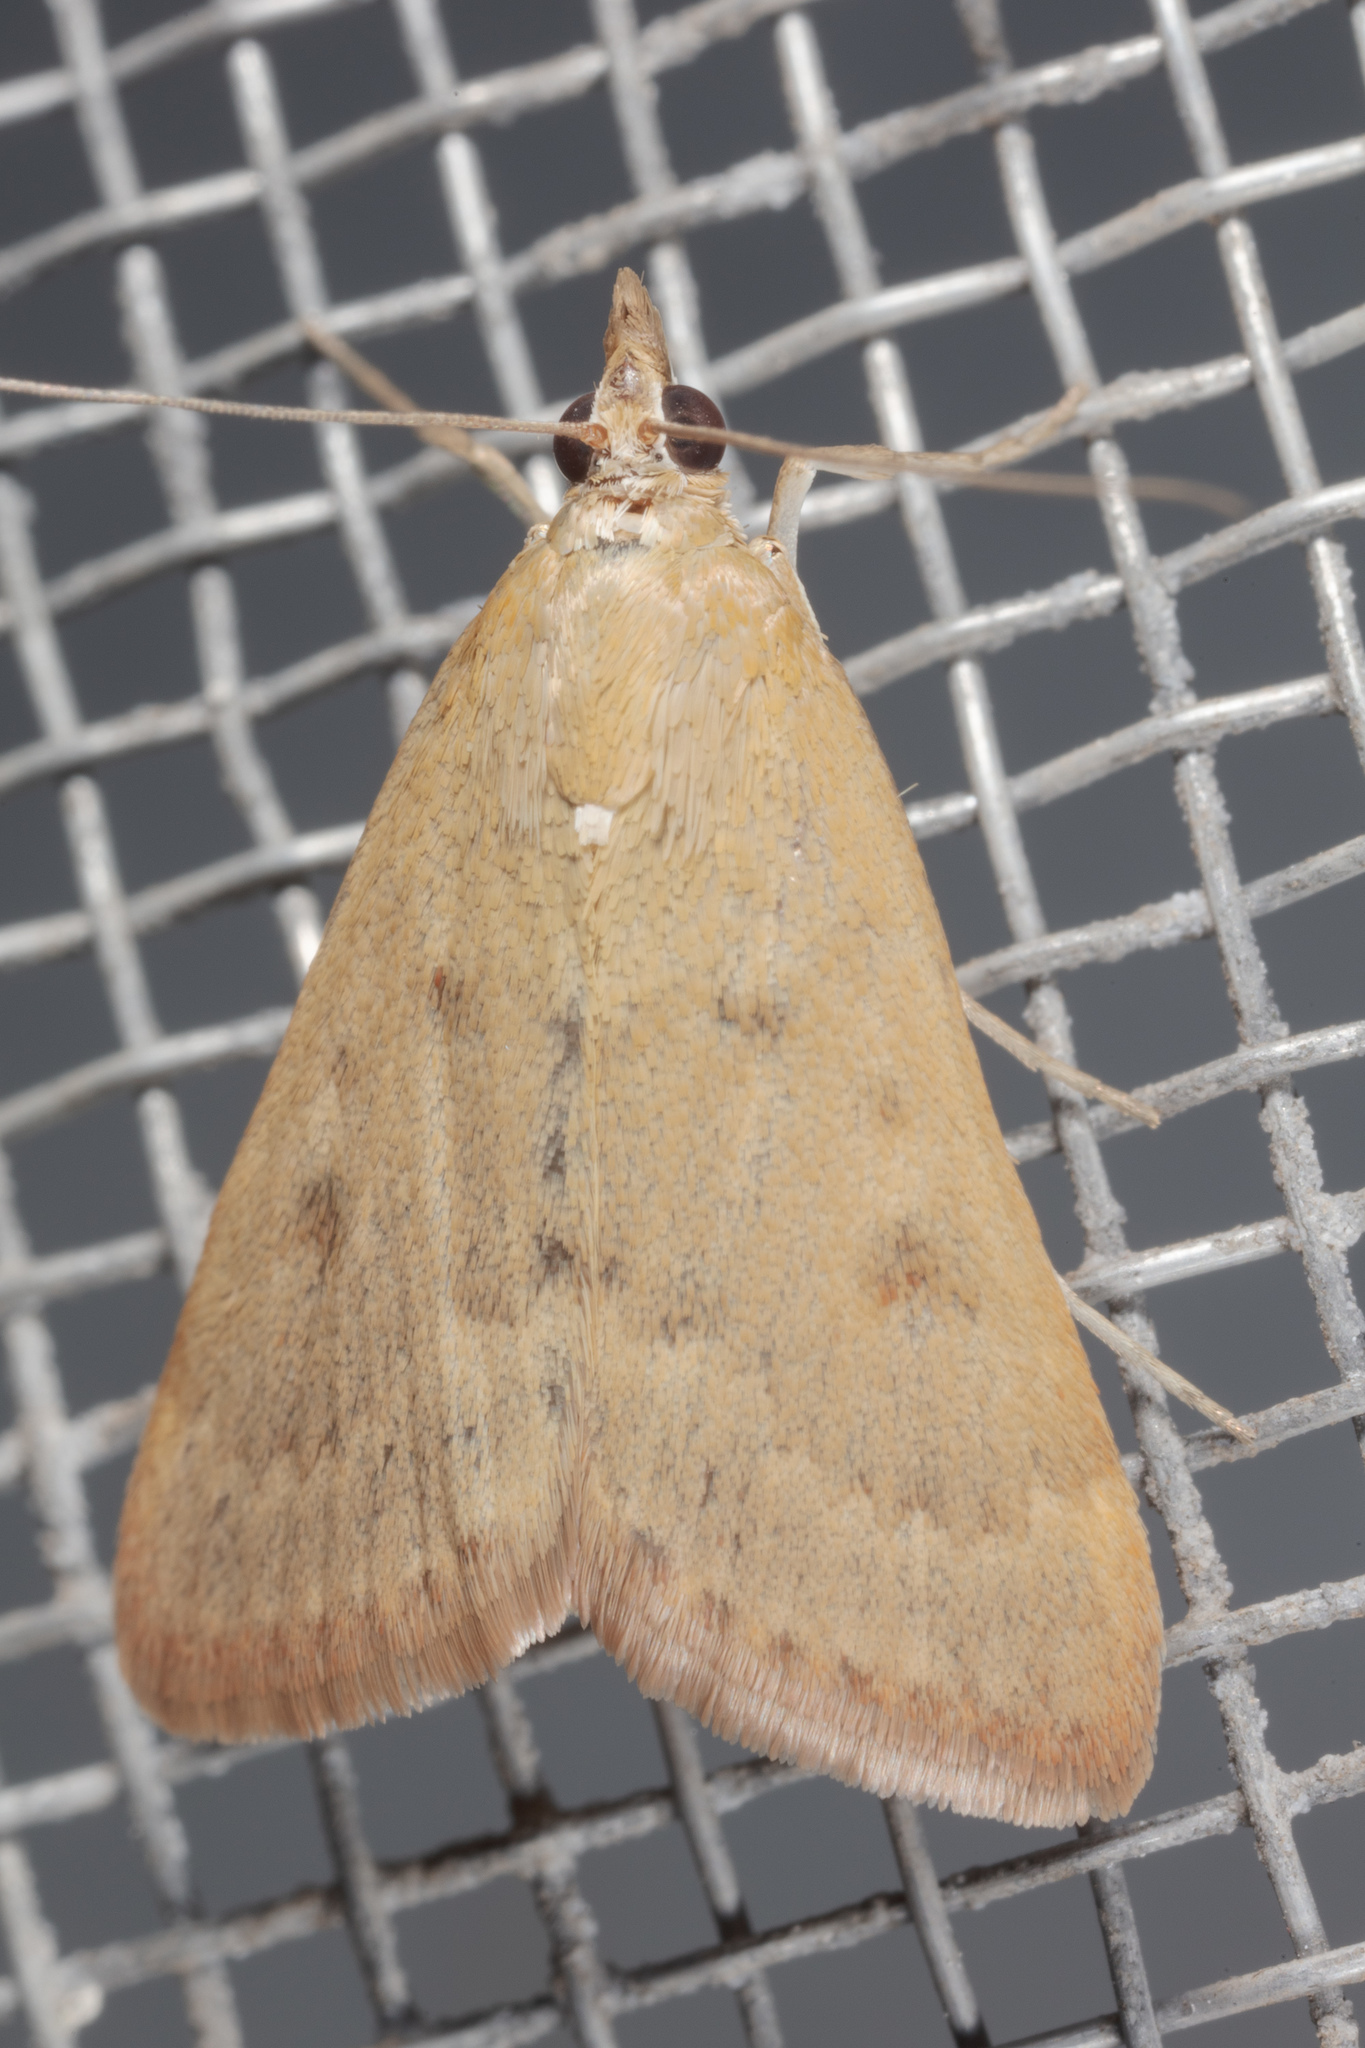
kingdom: Animalia
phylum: Arthropoda
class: Insecta
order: Lepidoptera
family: Crambidae
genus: Achyra
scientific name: Achyra rantalis
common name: Garden webworm
